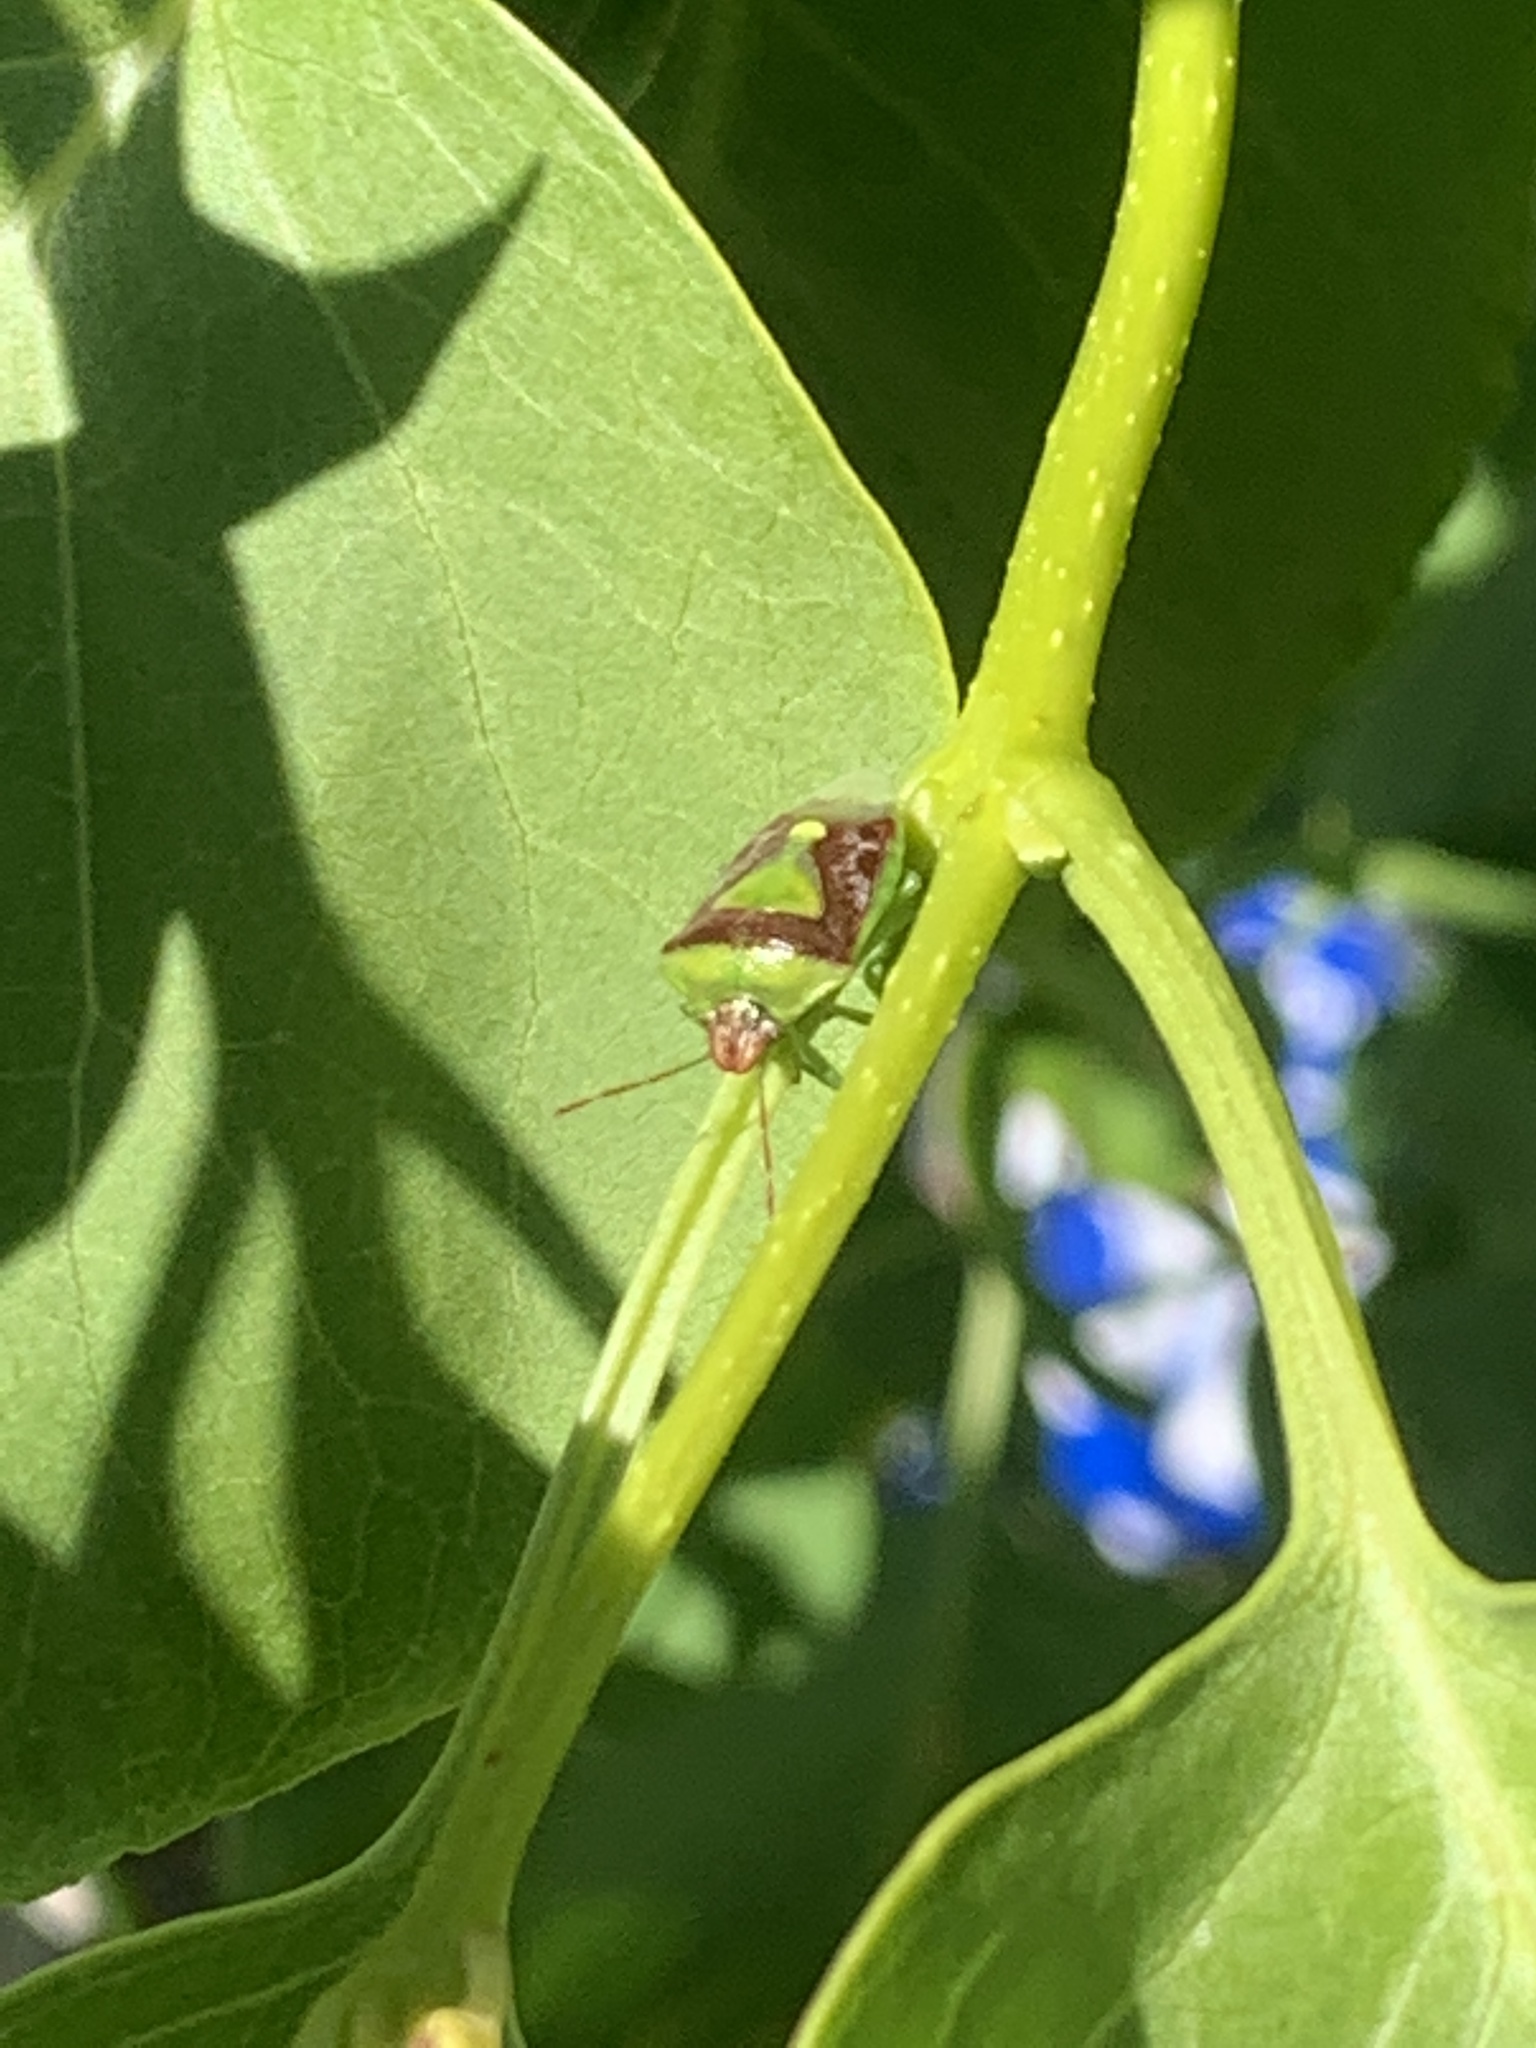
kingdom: Animalia
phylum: Arthropoda
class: Insecta
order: Hemiptera
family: Pentatomidae
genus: Banasa
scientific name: Banasa dimidiata
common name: Green burgundy stink bug
